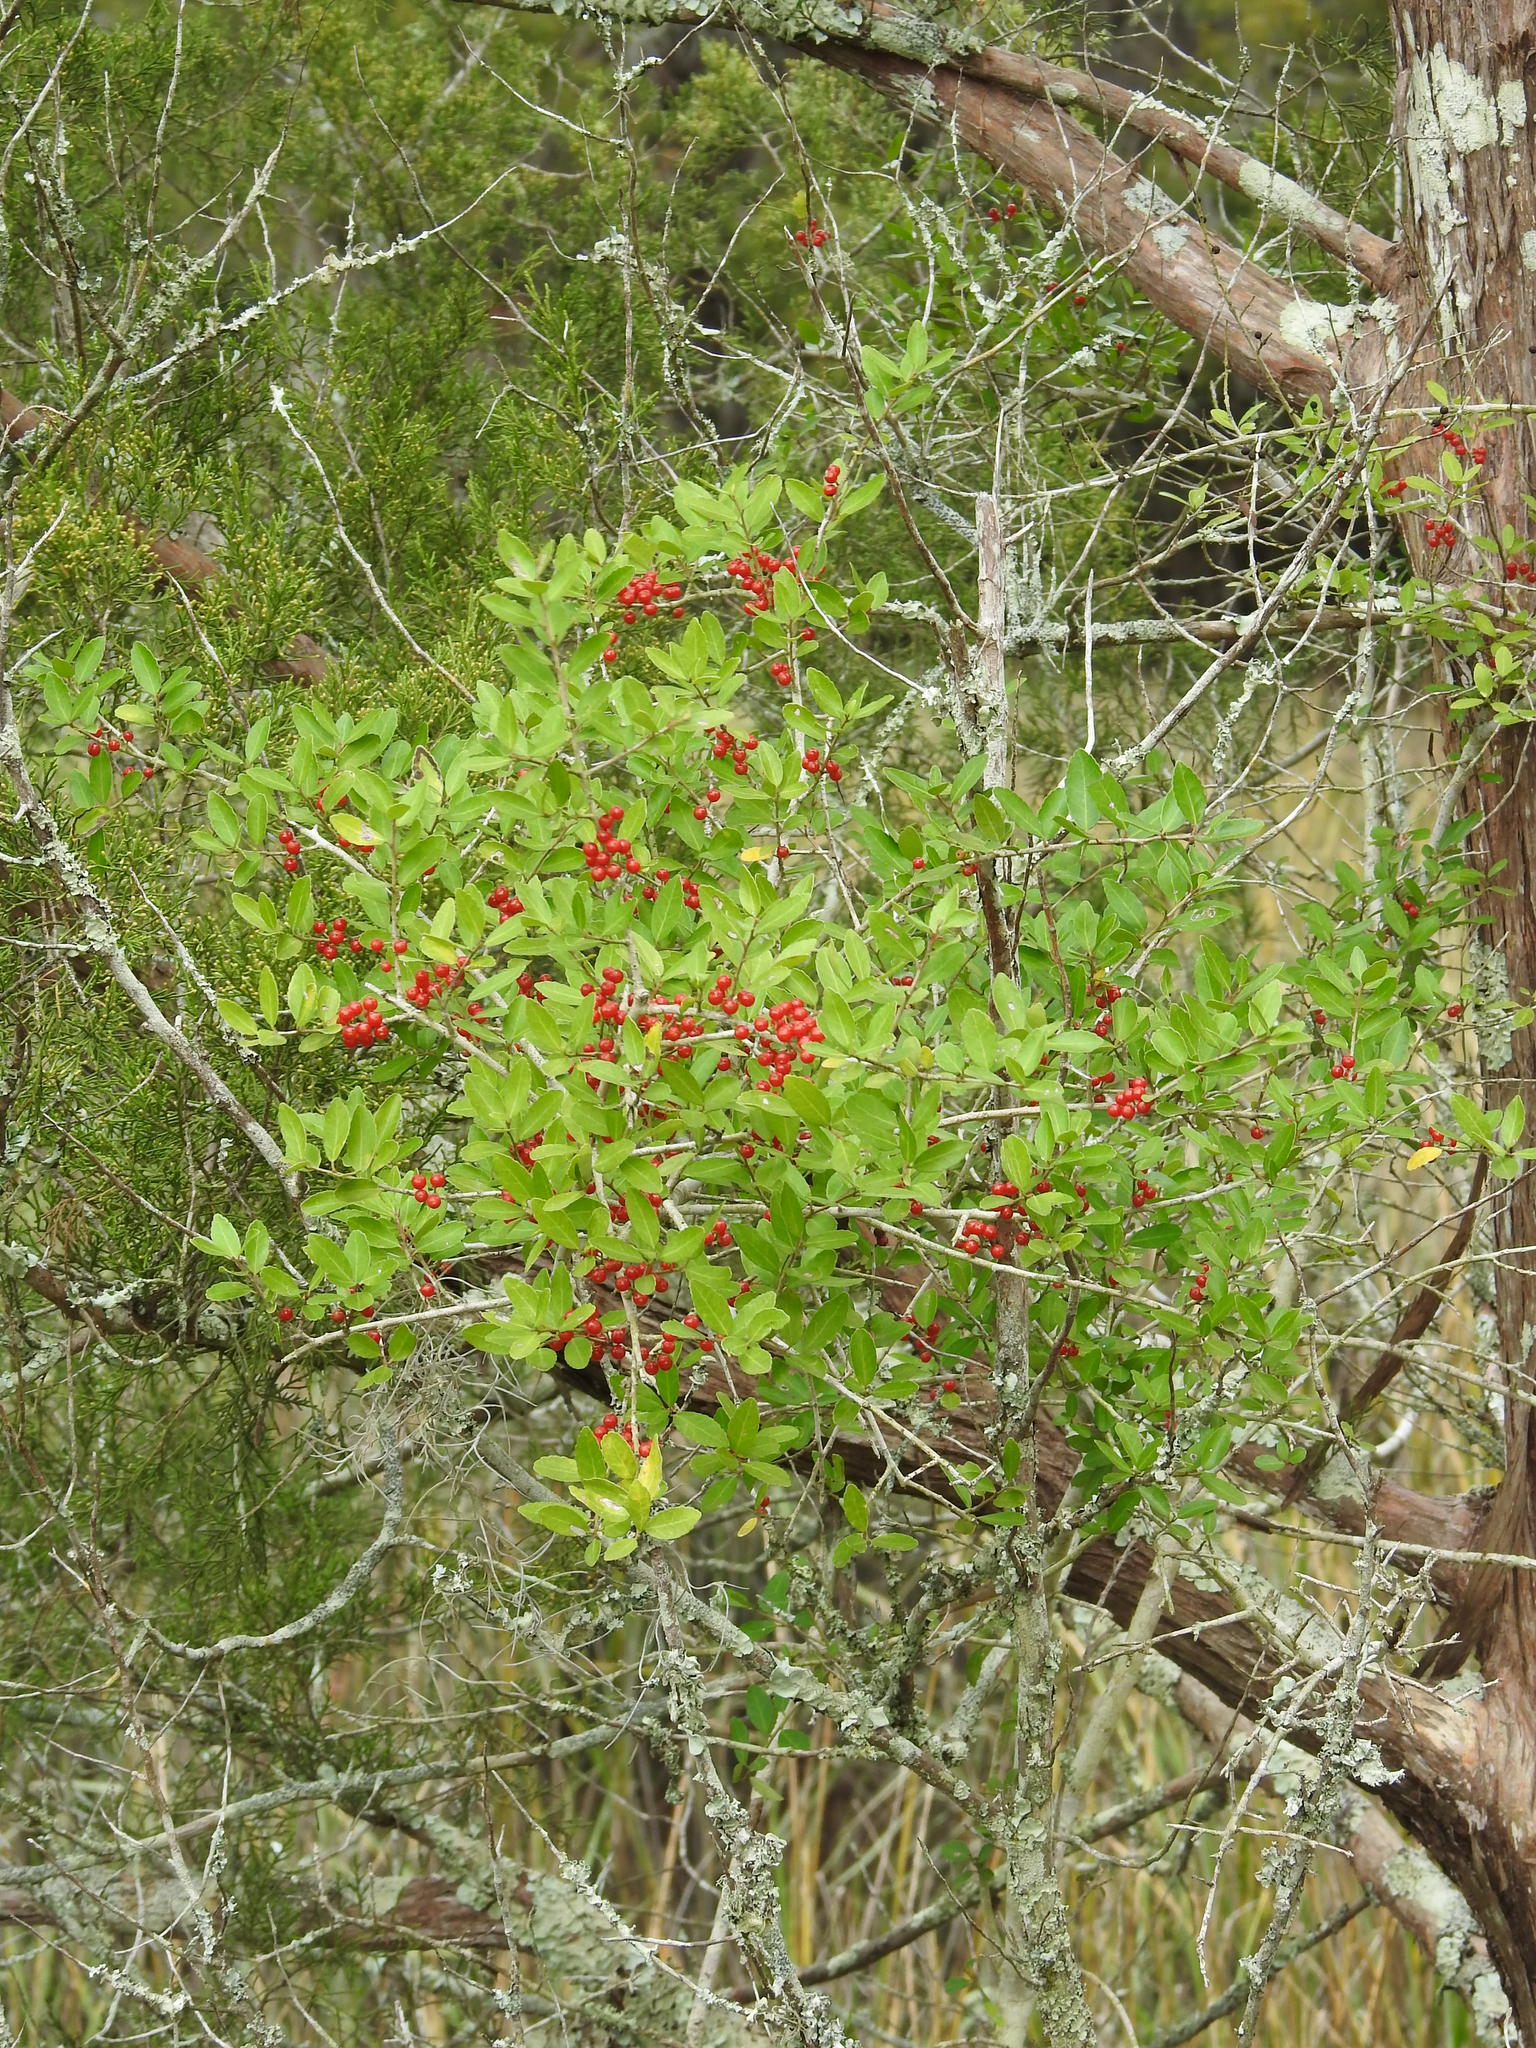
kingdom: Plantae
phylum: Tracheophyta
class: Magnoliopsida
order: Aquifoliales
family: Aquifoliaceae
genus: Ilex
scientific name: Ilex vomitoria
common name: Yaupon holly
